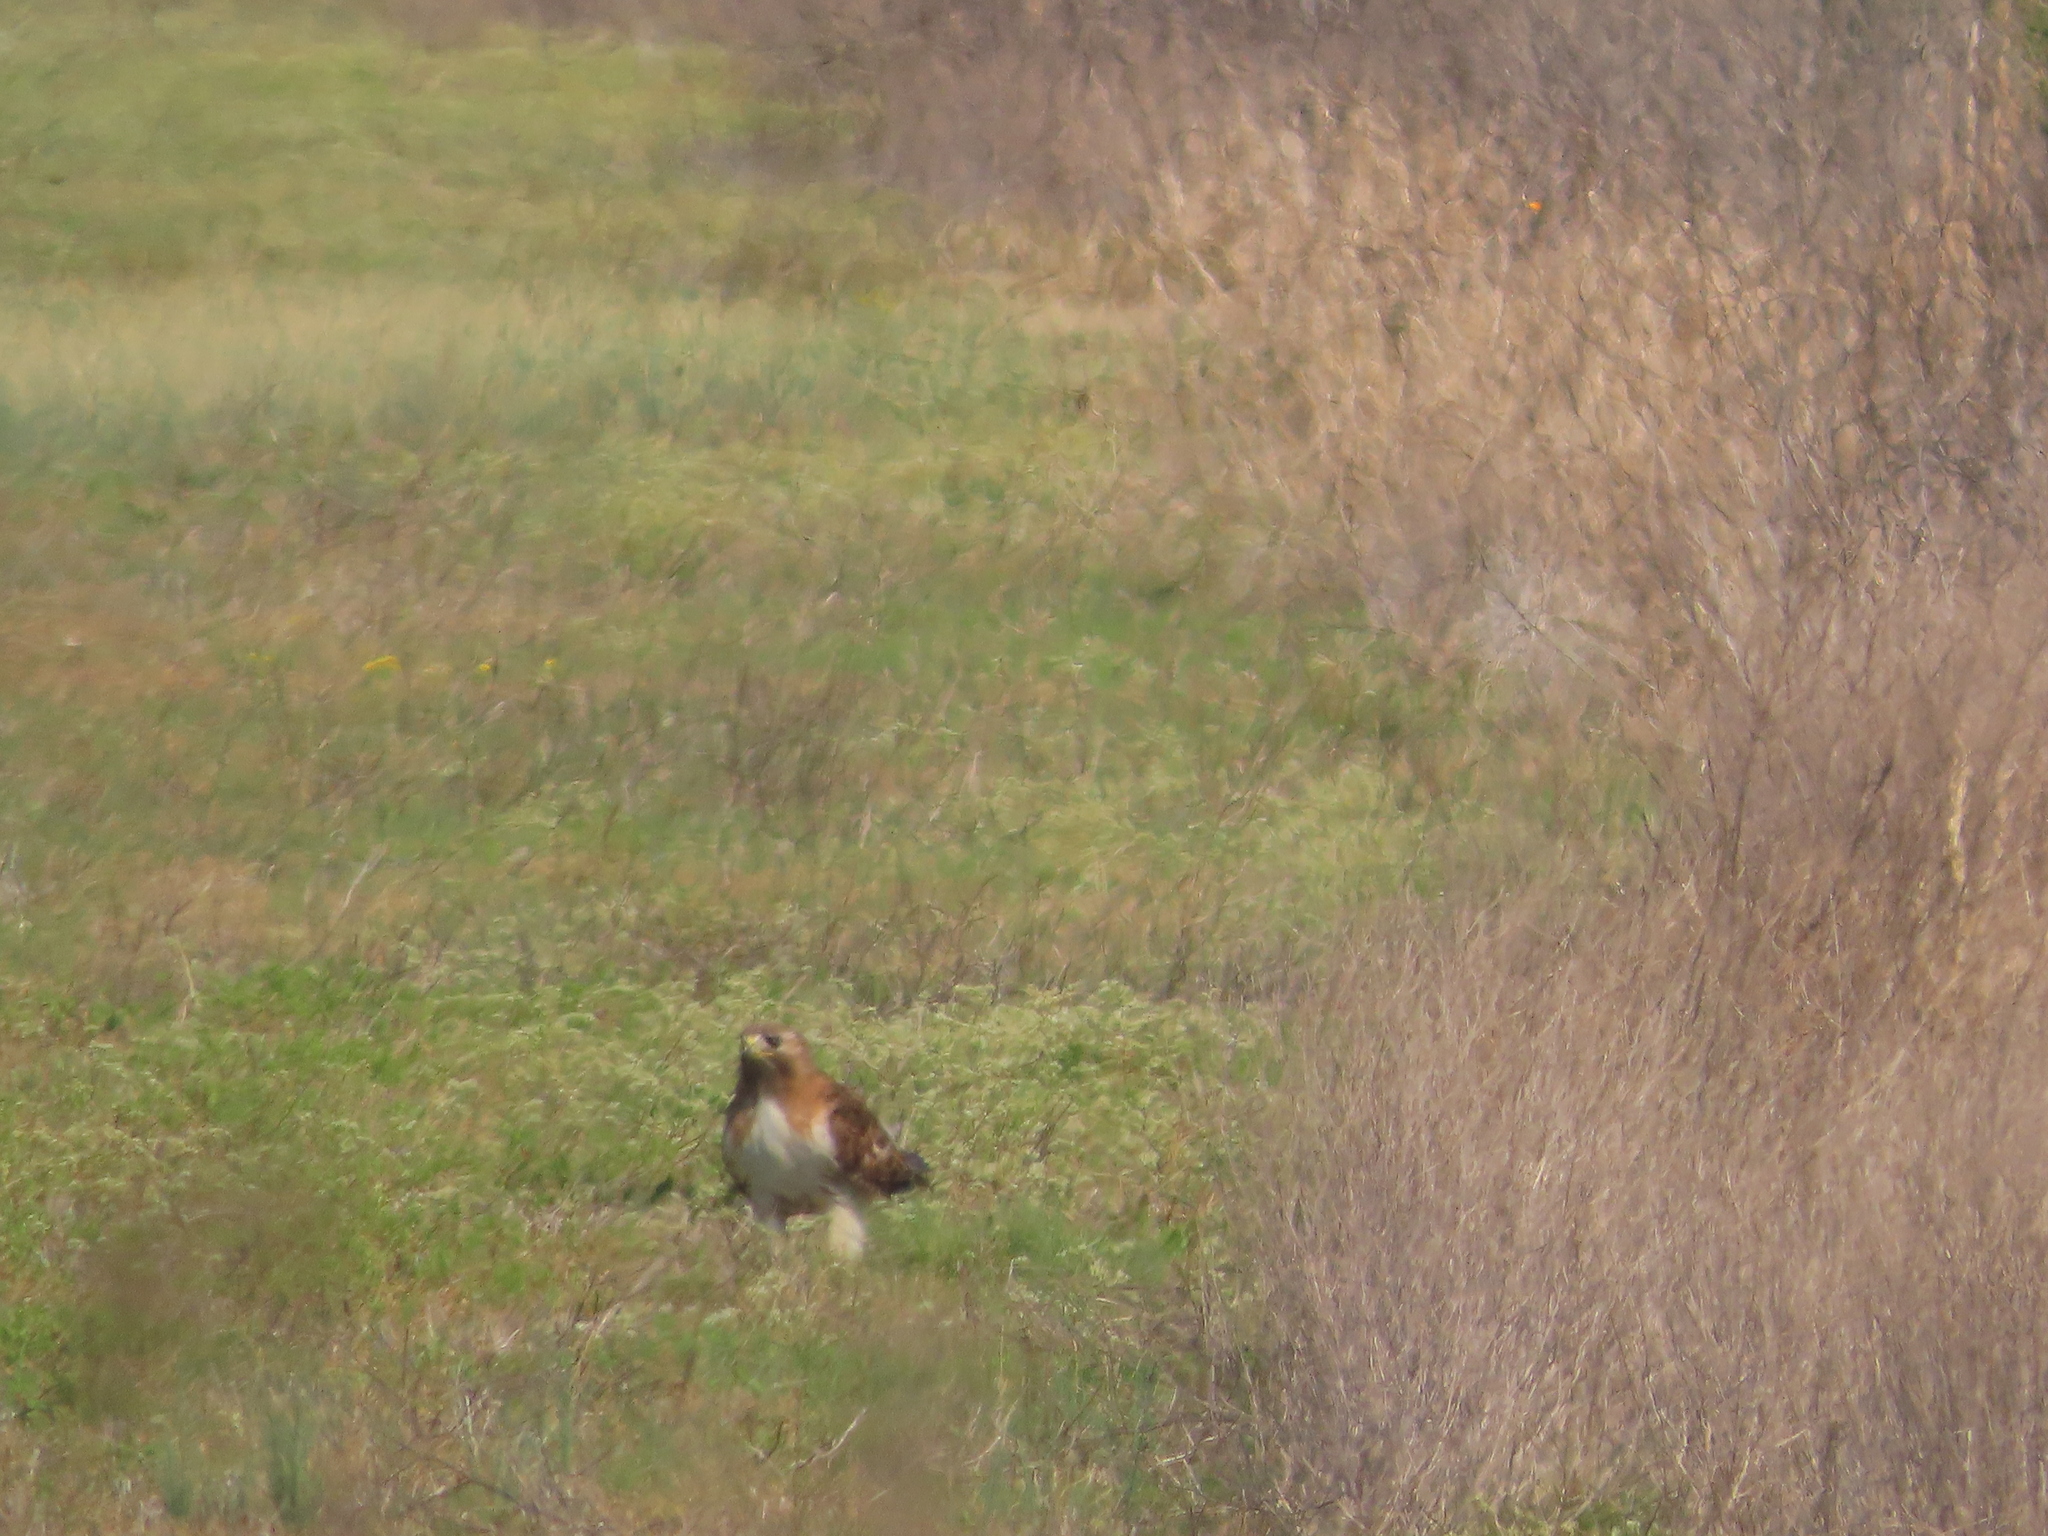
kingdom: Animalia
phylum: Chordata
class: Aves
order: Accipitriformes
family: Accipitridae
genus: Buteo
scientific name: Buteo jamaicensis
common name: Red-tailed hawk
